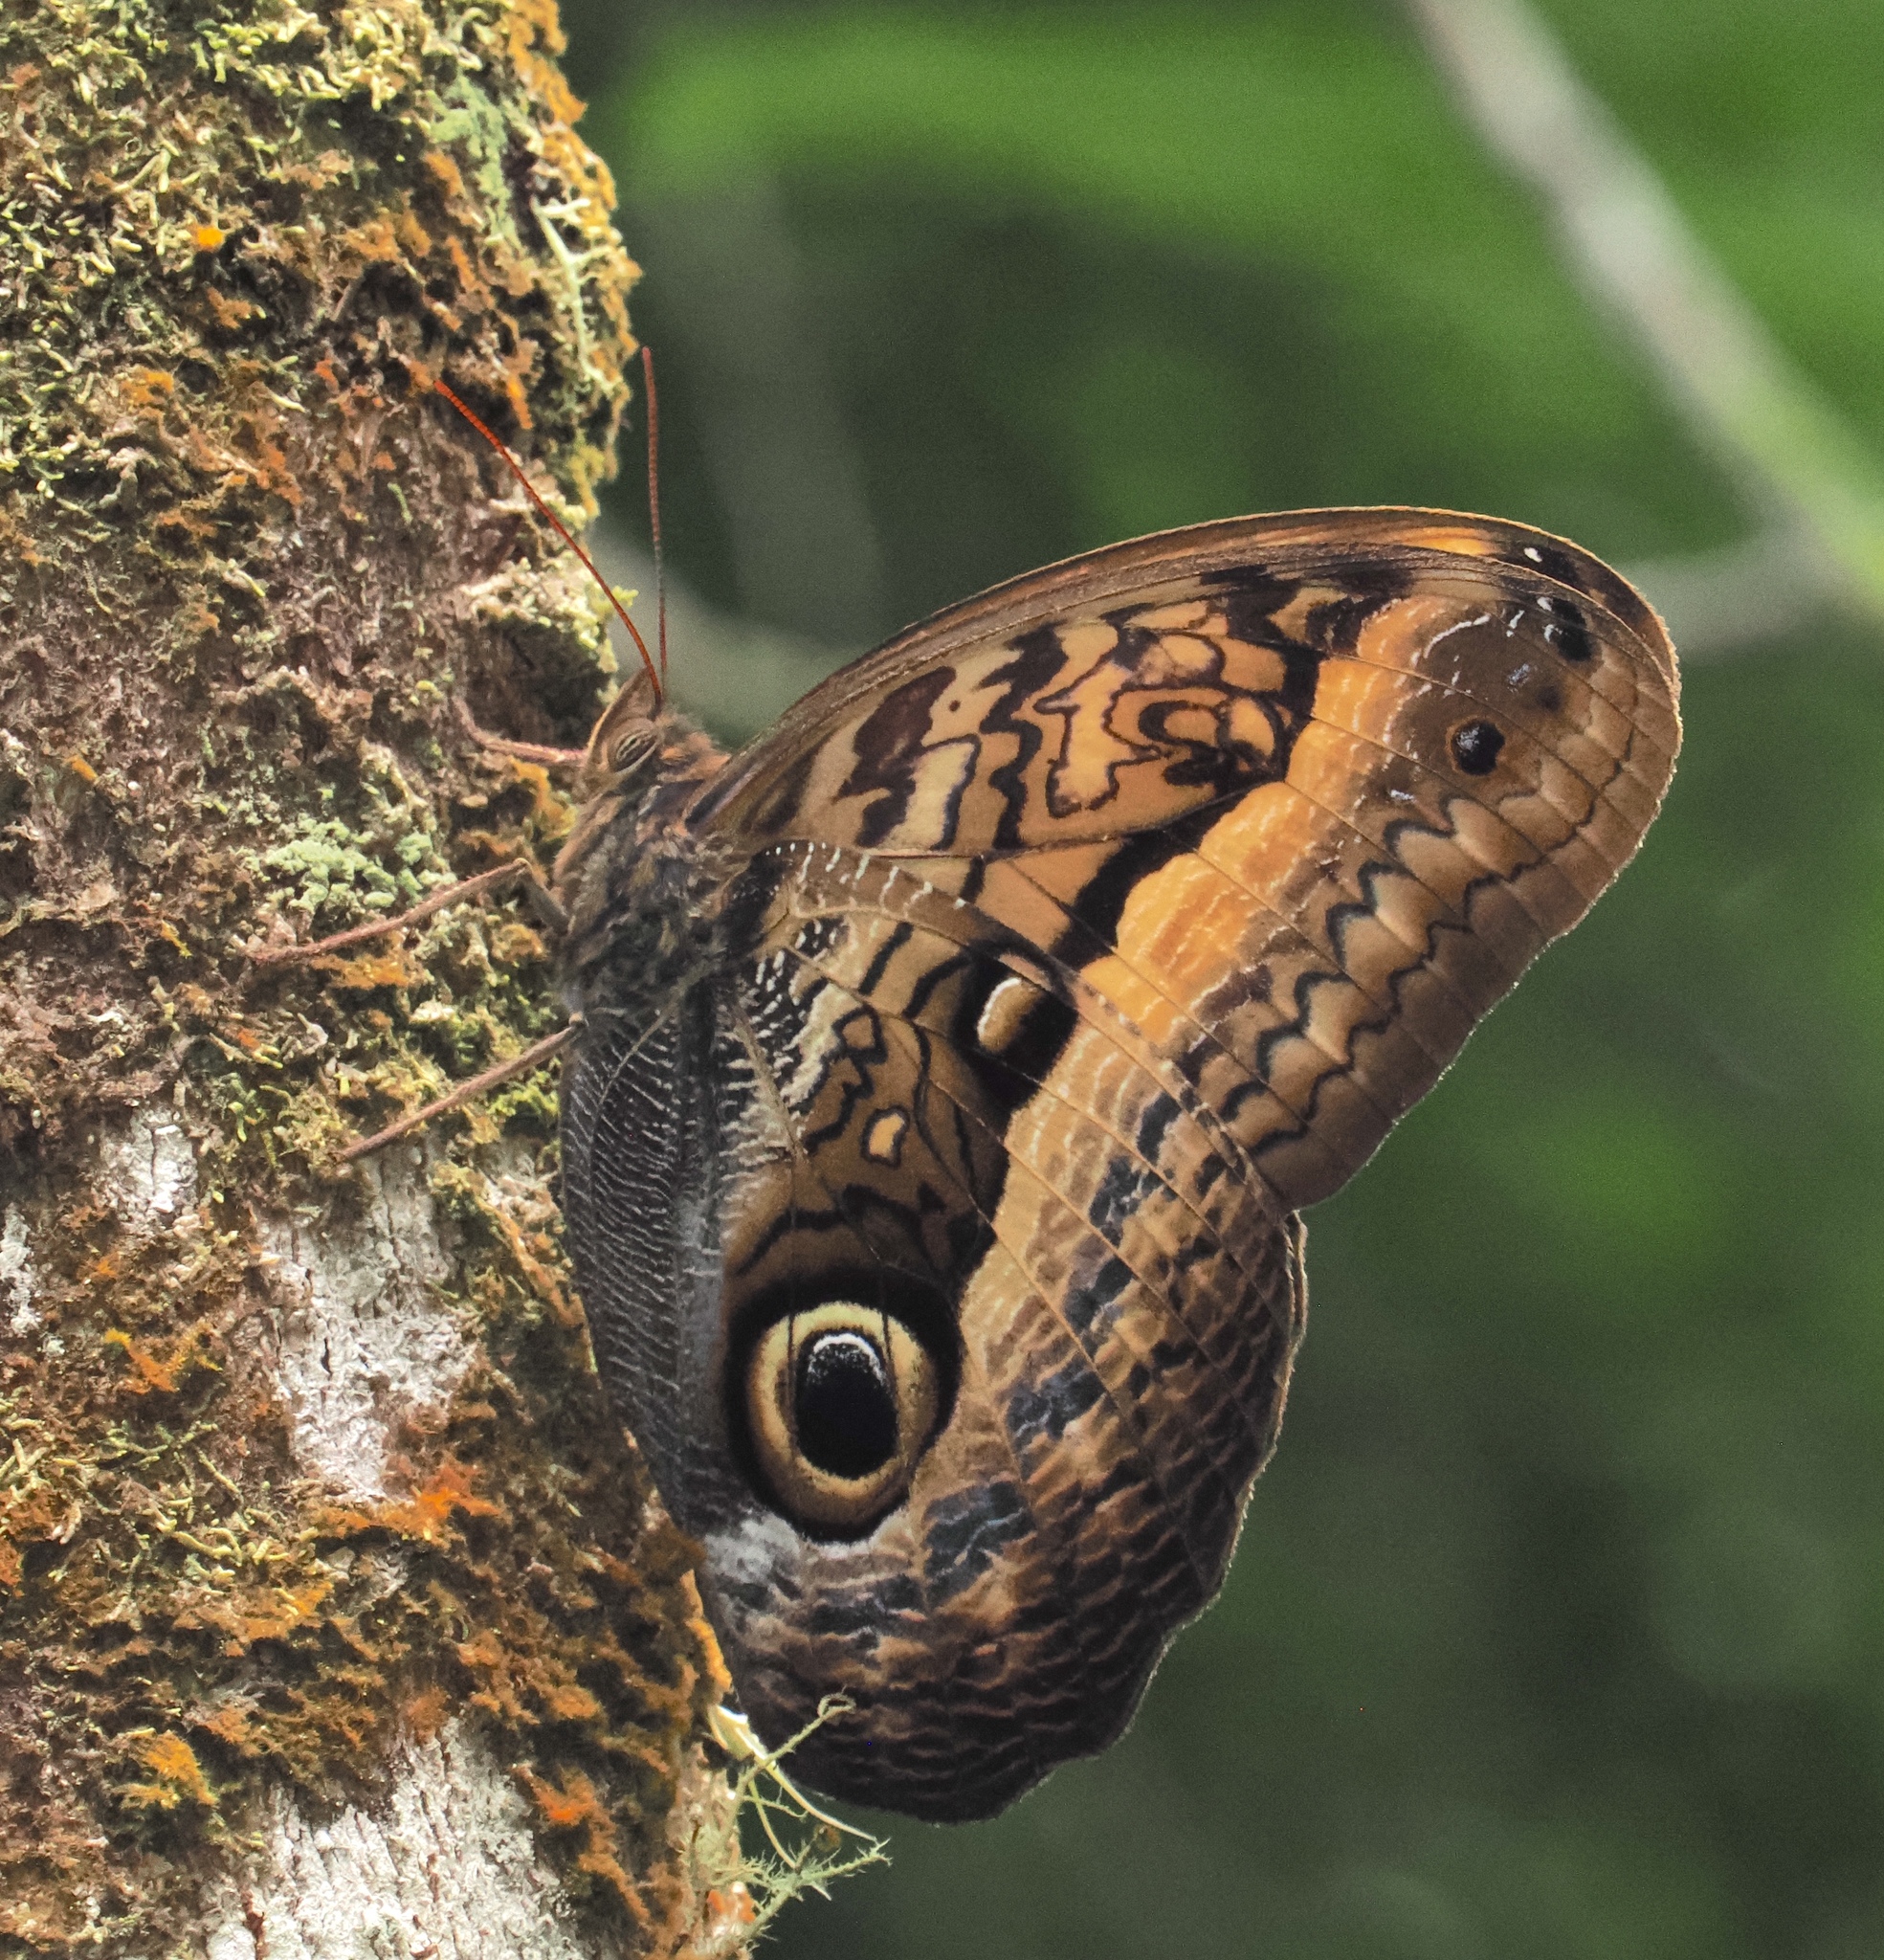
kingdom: Animalia
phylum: Arthropoda
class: Insecta
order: Lepidoptera
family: Nymphalidae
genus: Caligo
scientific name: Caligo arisbe
